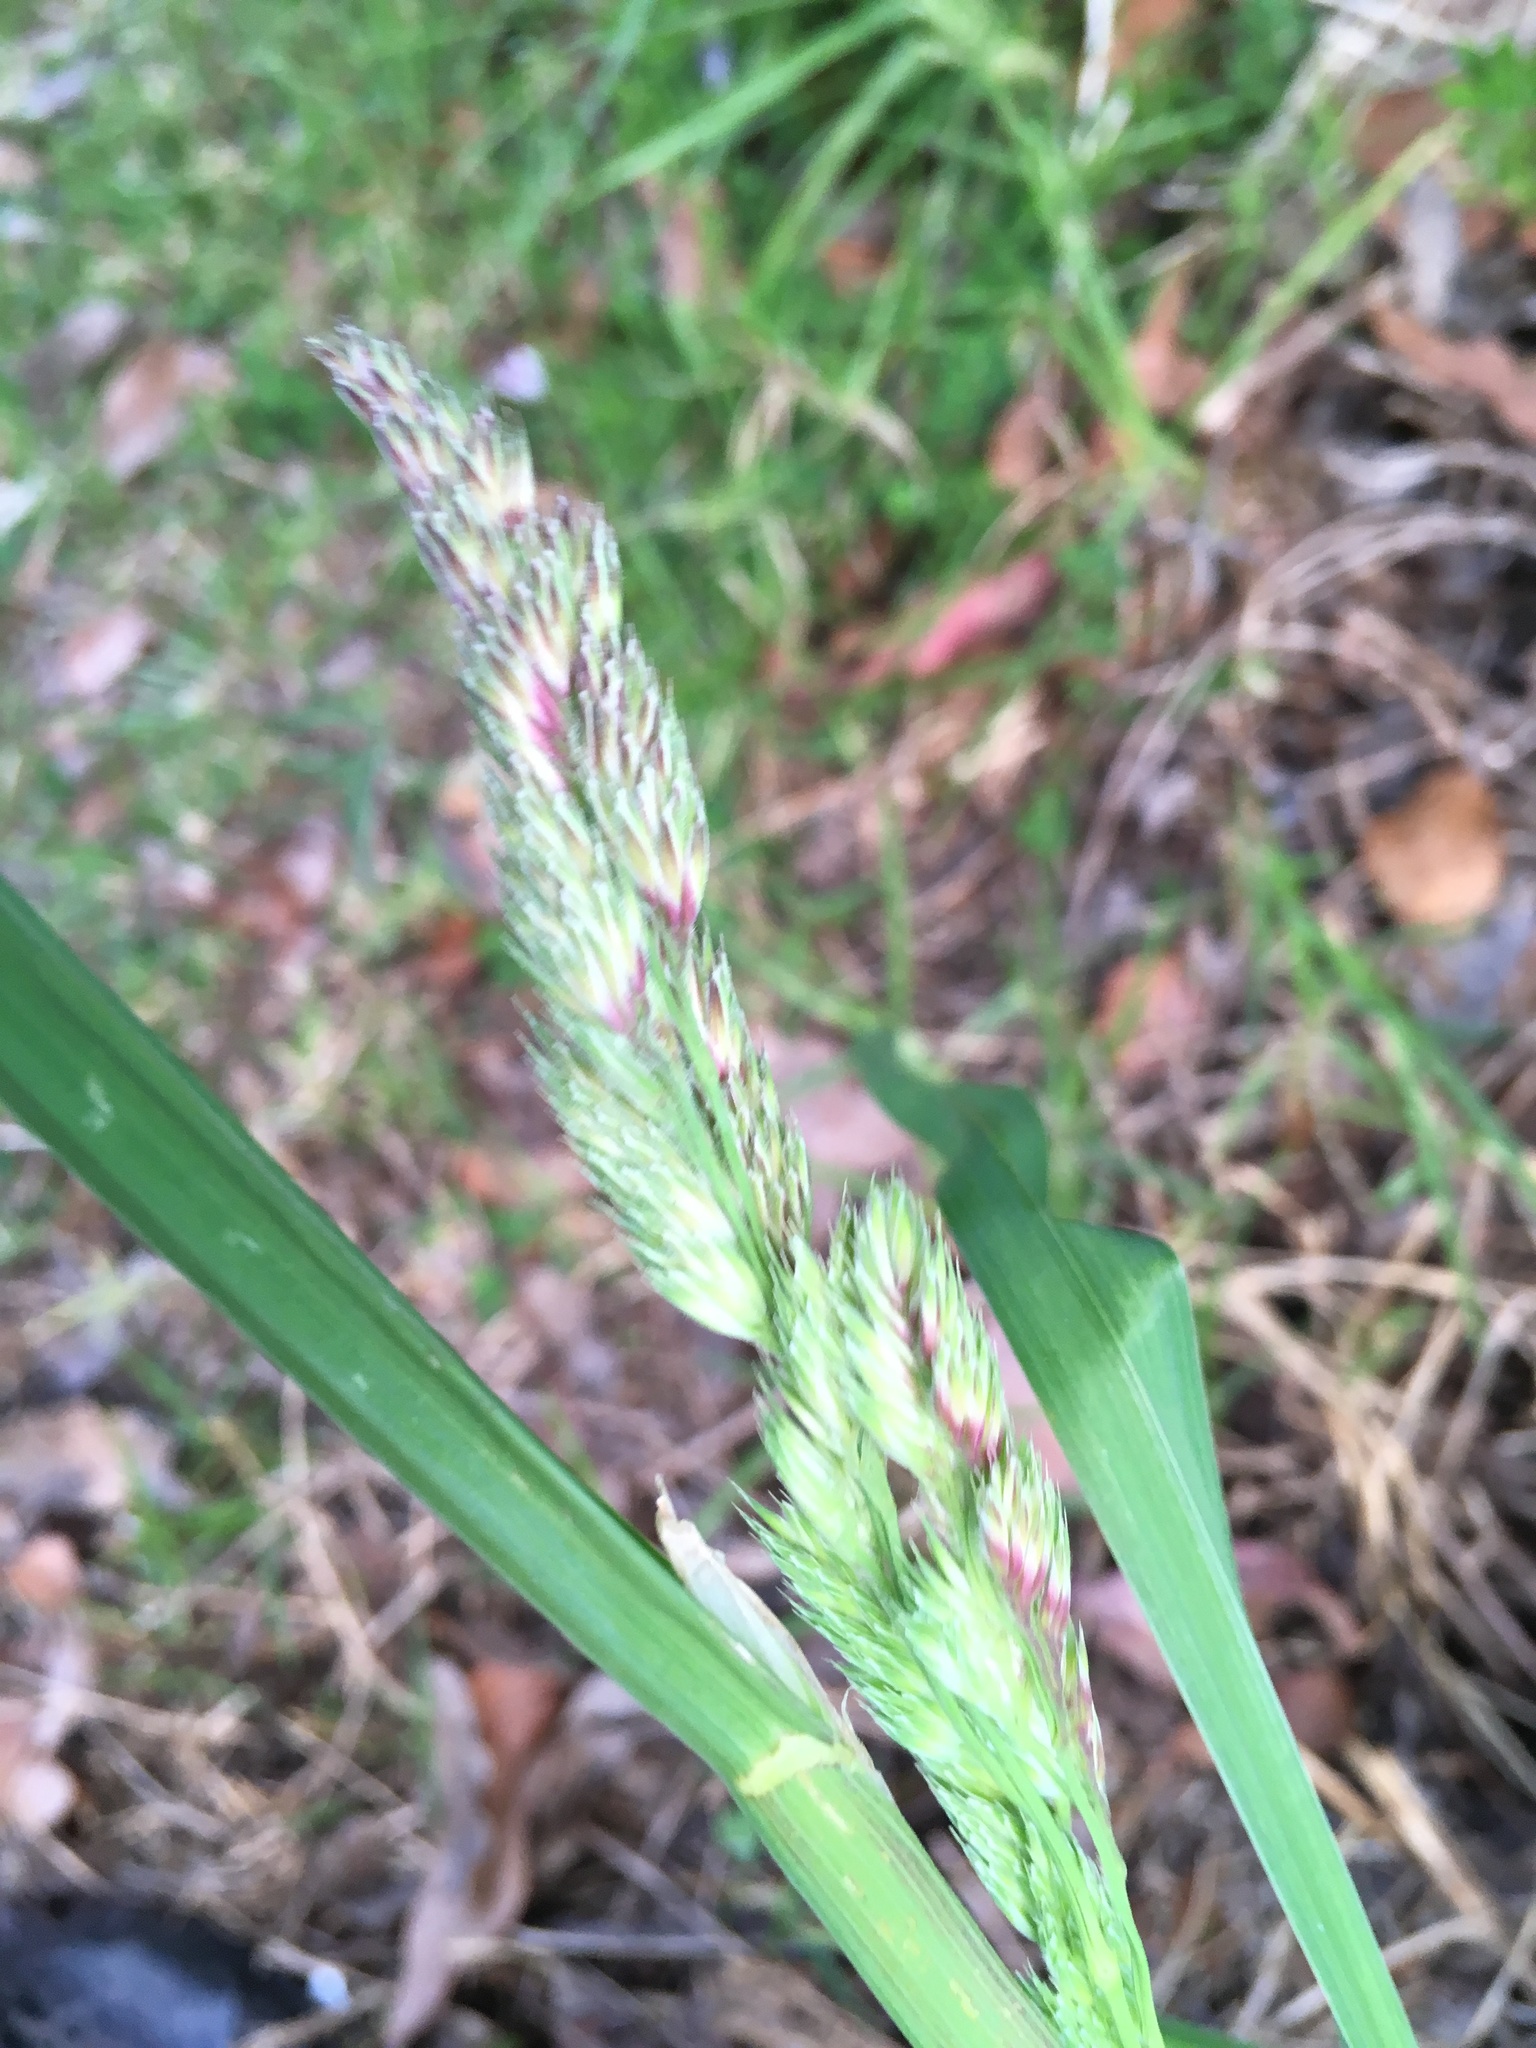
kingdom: Plantae
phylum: Tracheophyta
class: Liliopsida
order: Poales
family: Poaceae
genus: Dactylis
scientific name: Dactylis glomerata
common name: Orchardgrass
